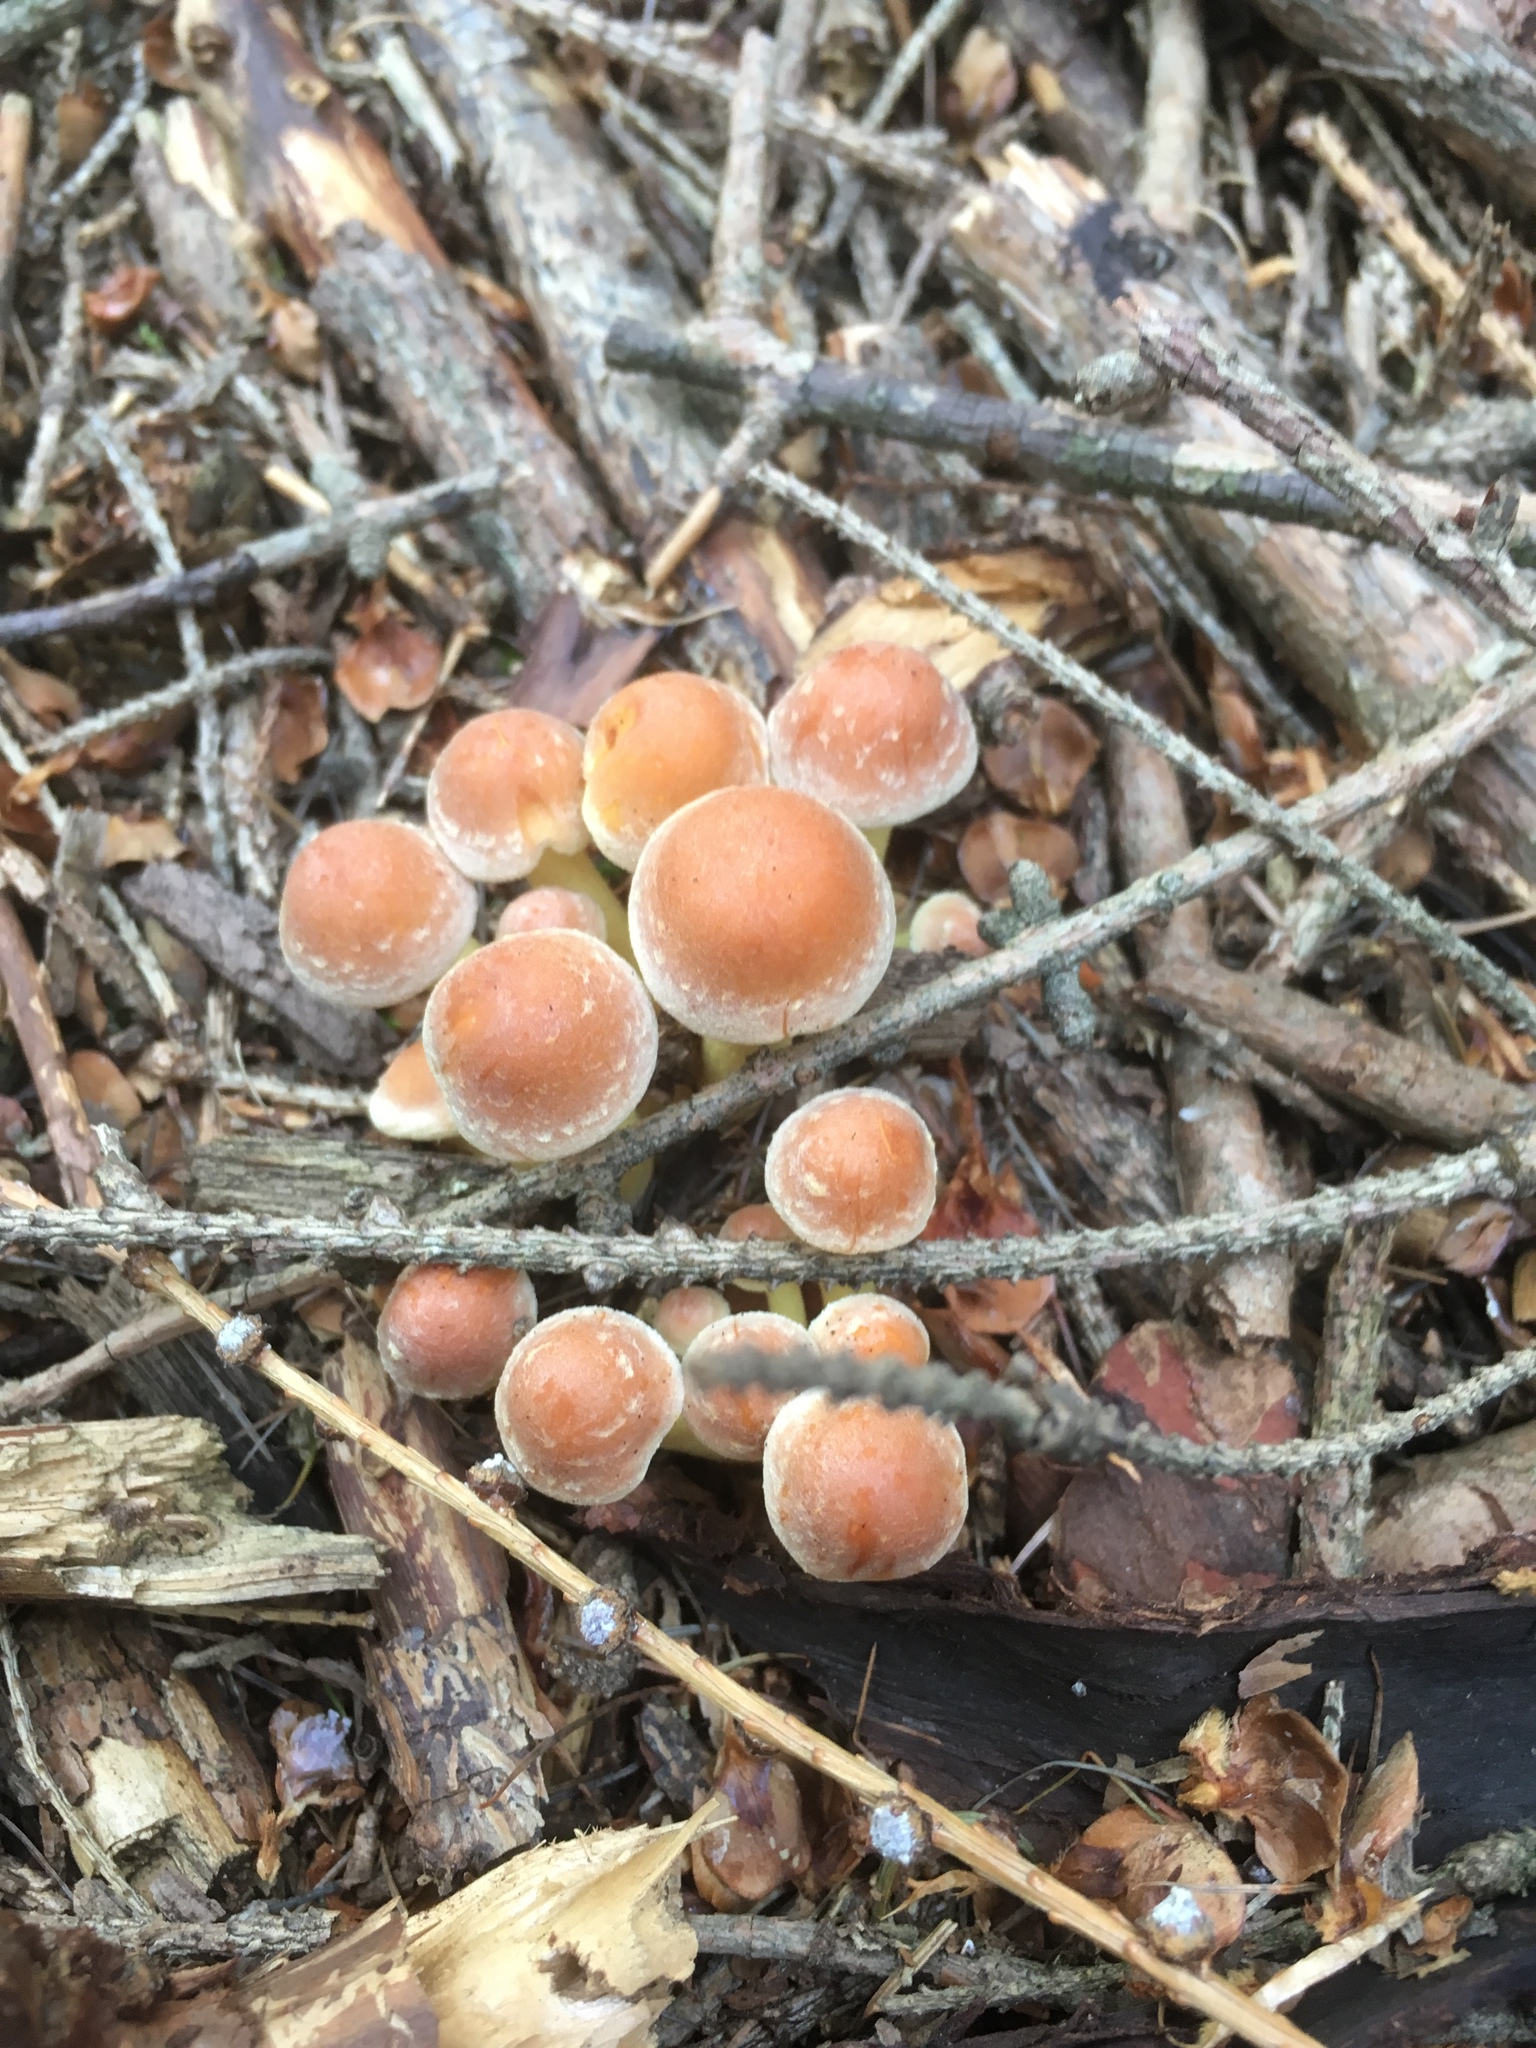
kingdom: Fungi
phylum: Basidiomycota
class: Agaricomycetes
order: Agaricales
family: Strophariaceae
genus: Hypholoma
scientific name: Hypholoma fasciculare
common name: Sulphur tuft
